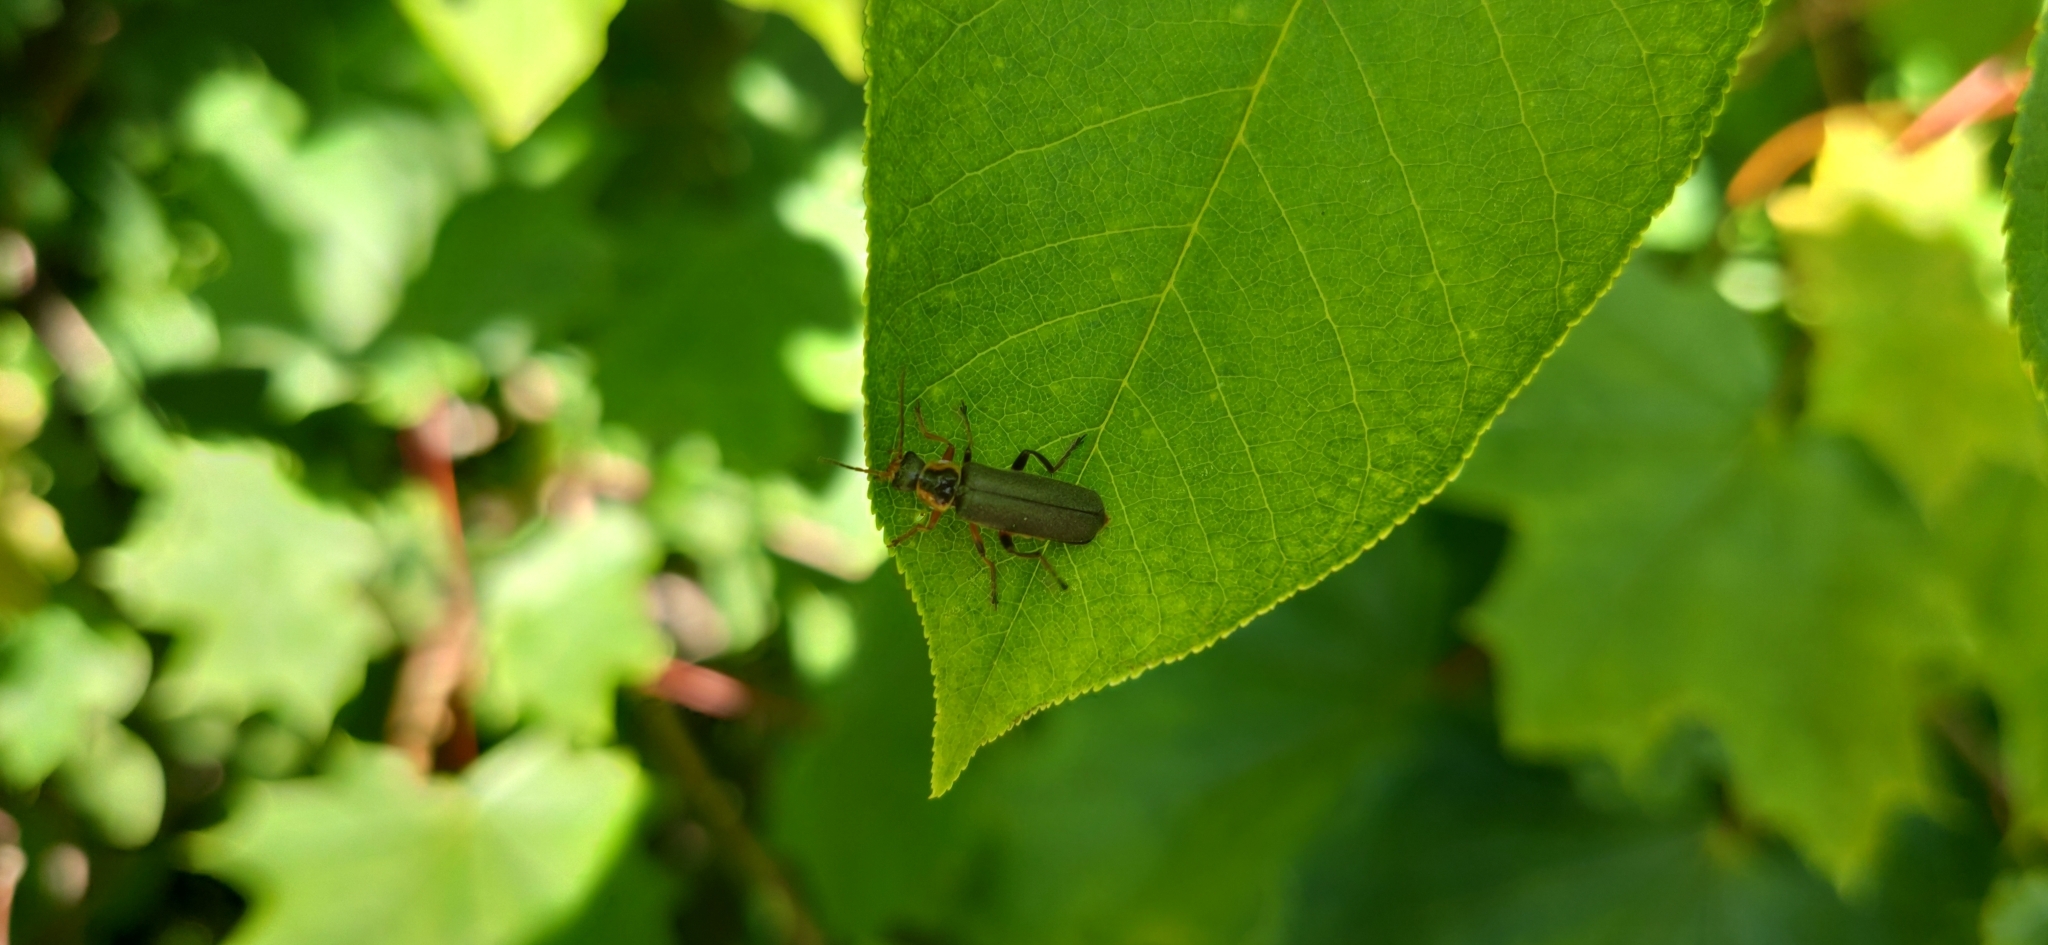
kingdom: Animalia
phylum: Arthropoda
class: Insecta
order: Coleoptera
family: Cantharidae
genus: Cantharis
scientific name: Cantharis nigricans
